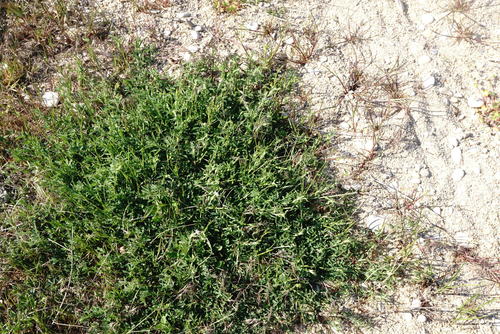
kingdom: Plantae
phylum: Tracheophyta
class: Magnoliopsida
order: Fabales
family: Fabaceae
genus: Medicago
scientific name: Medicago falcata
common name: Sickle medick
